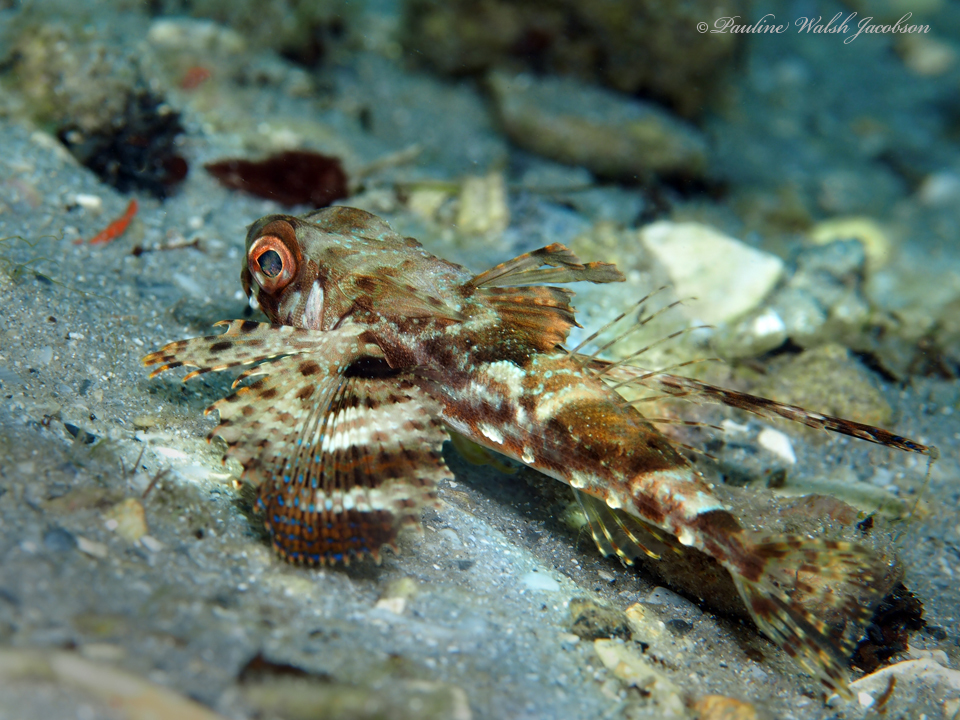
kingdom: Animalia
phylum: Chordata
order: Scorpaeniformes
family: Dactylopteridae
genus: Dactylopterus
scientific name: Dactylopterus volitans
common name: Flying gurnard
